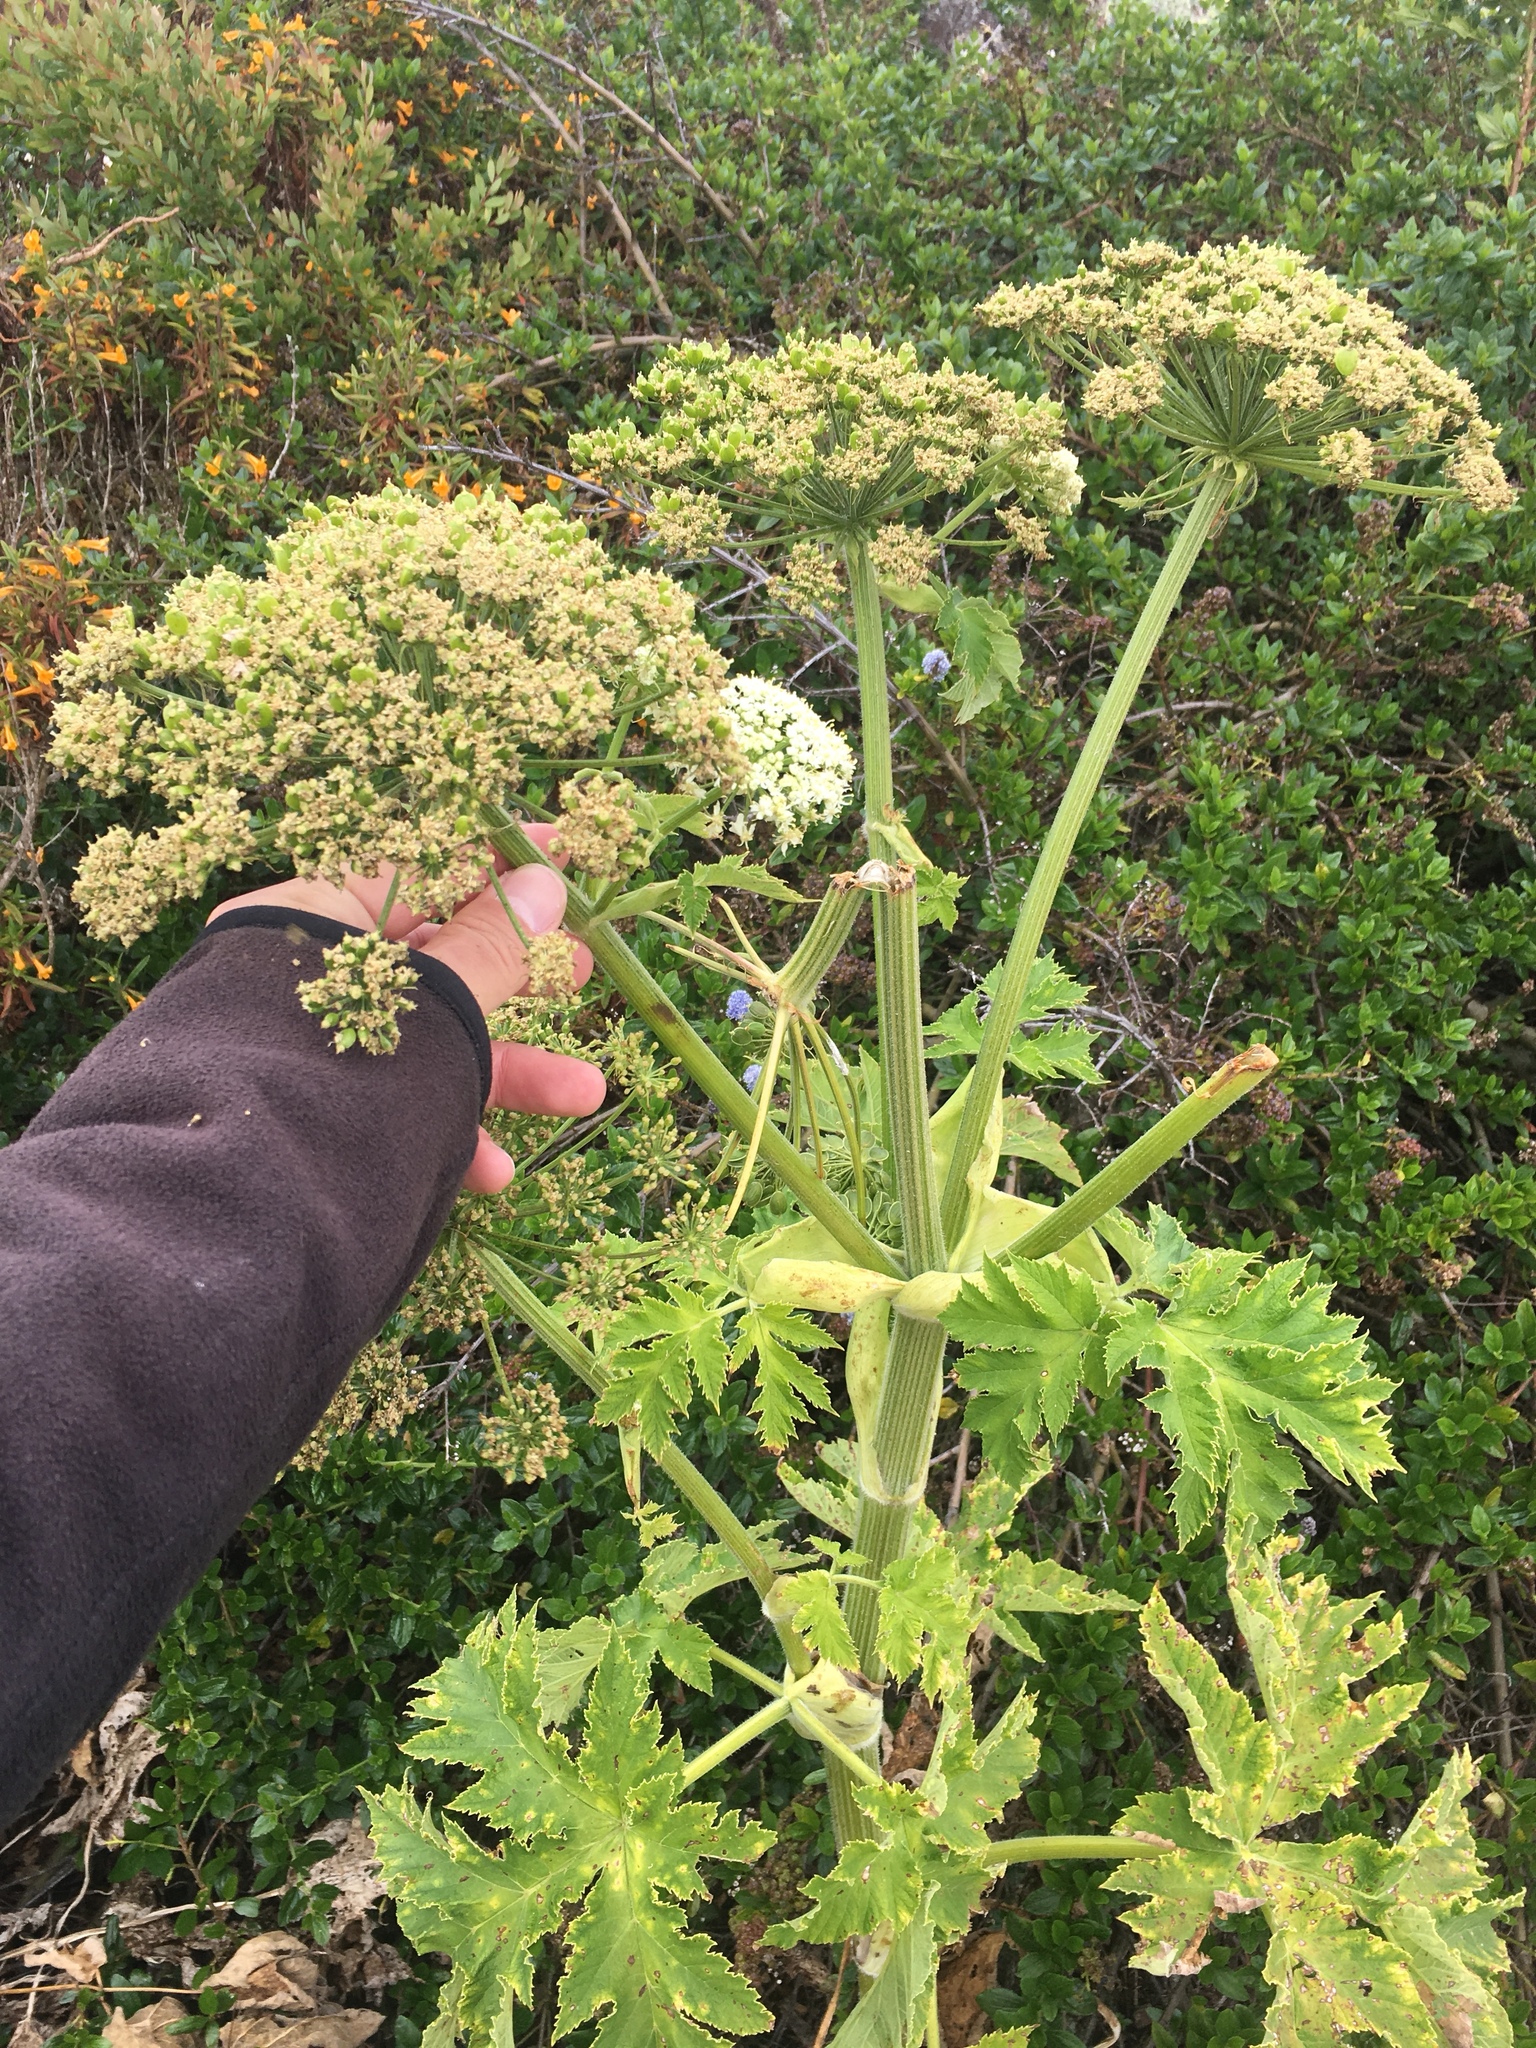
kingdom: Plantae
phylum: Tracheophyta
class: Magnoliopsida
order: Apiales
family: Apiaceae
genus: Heracleum
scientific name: Heracleum maximum
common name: American cow parsnip
